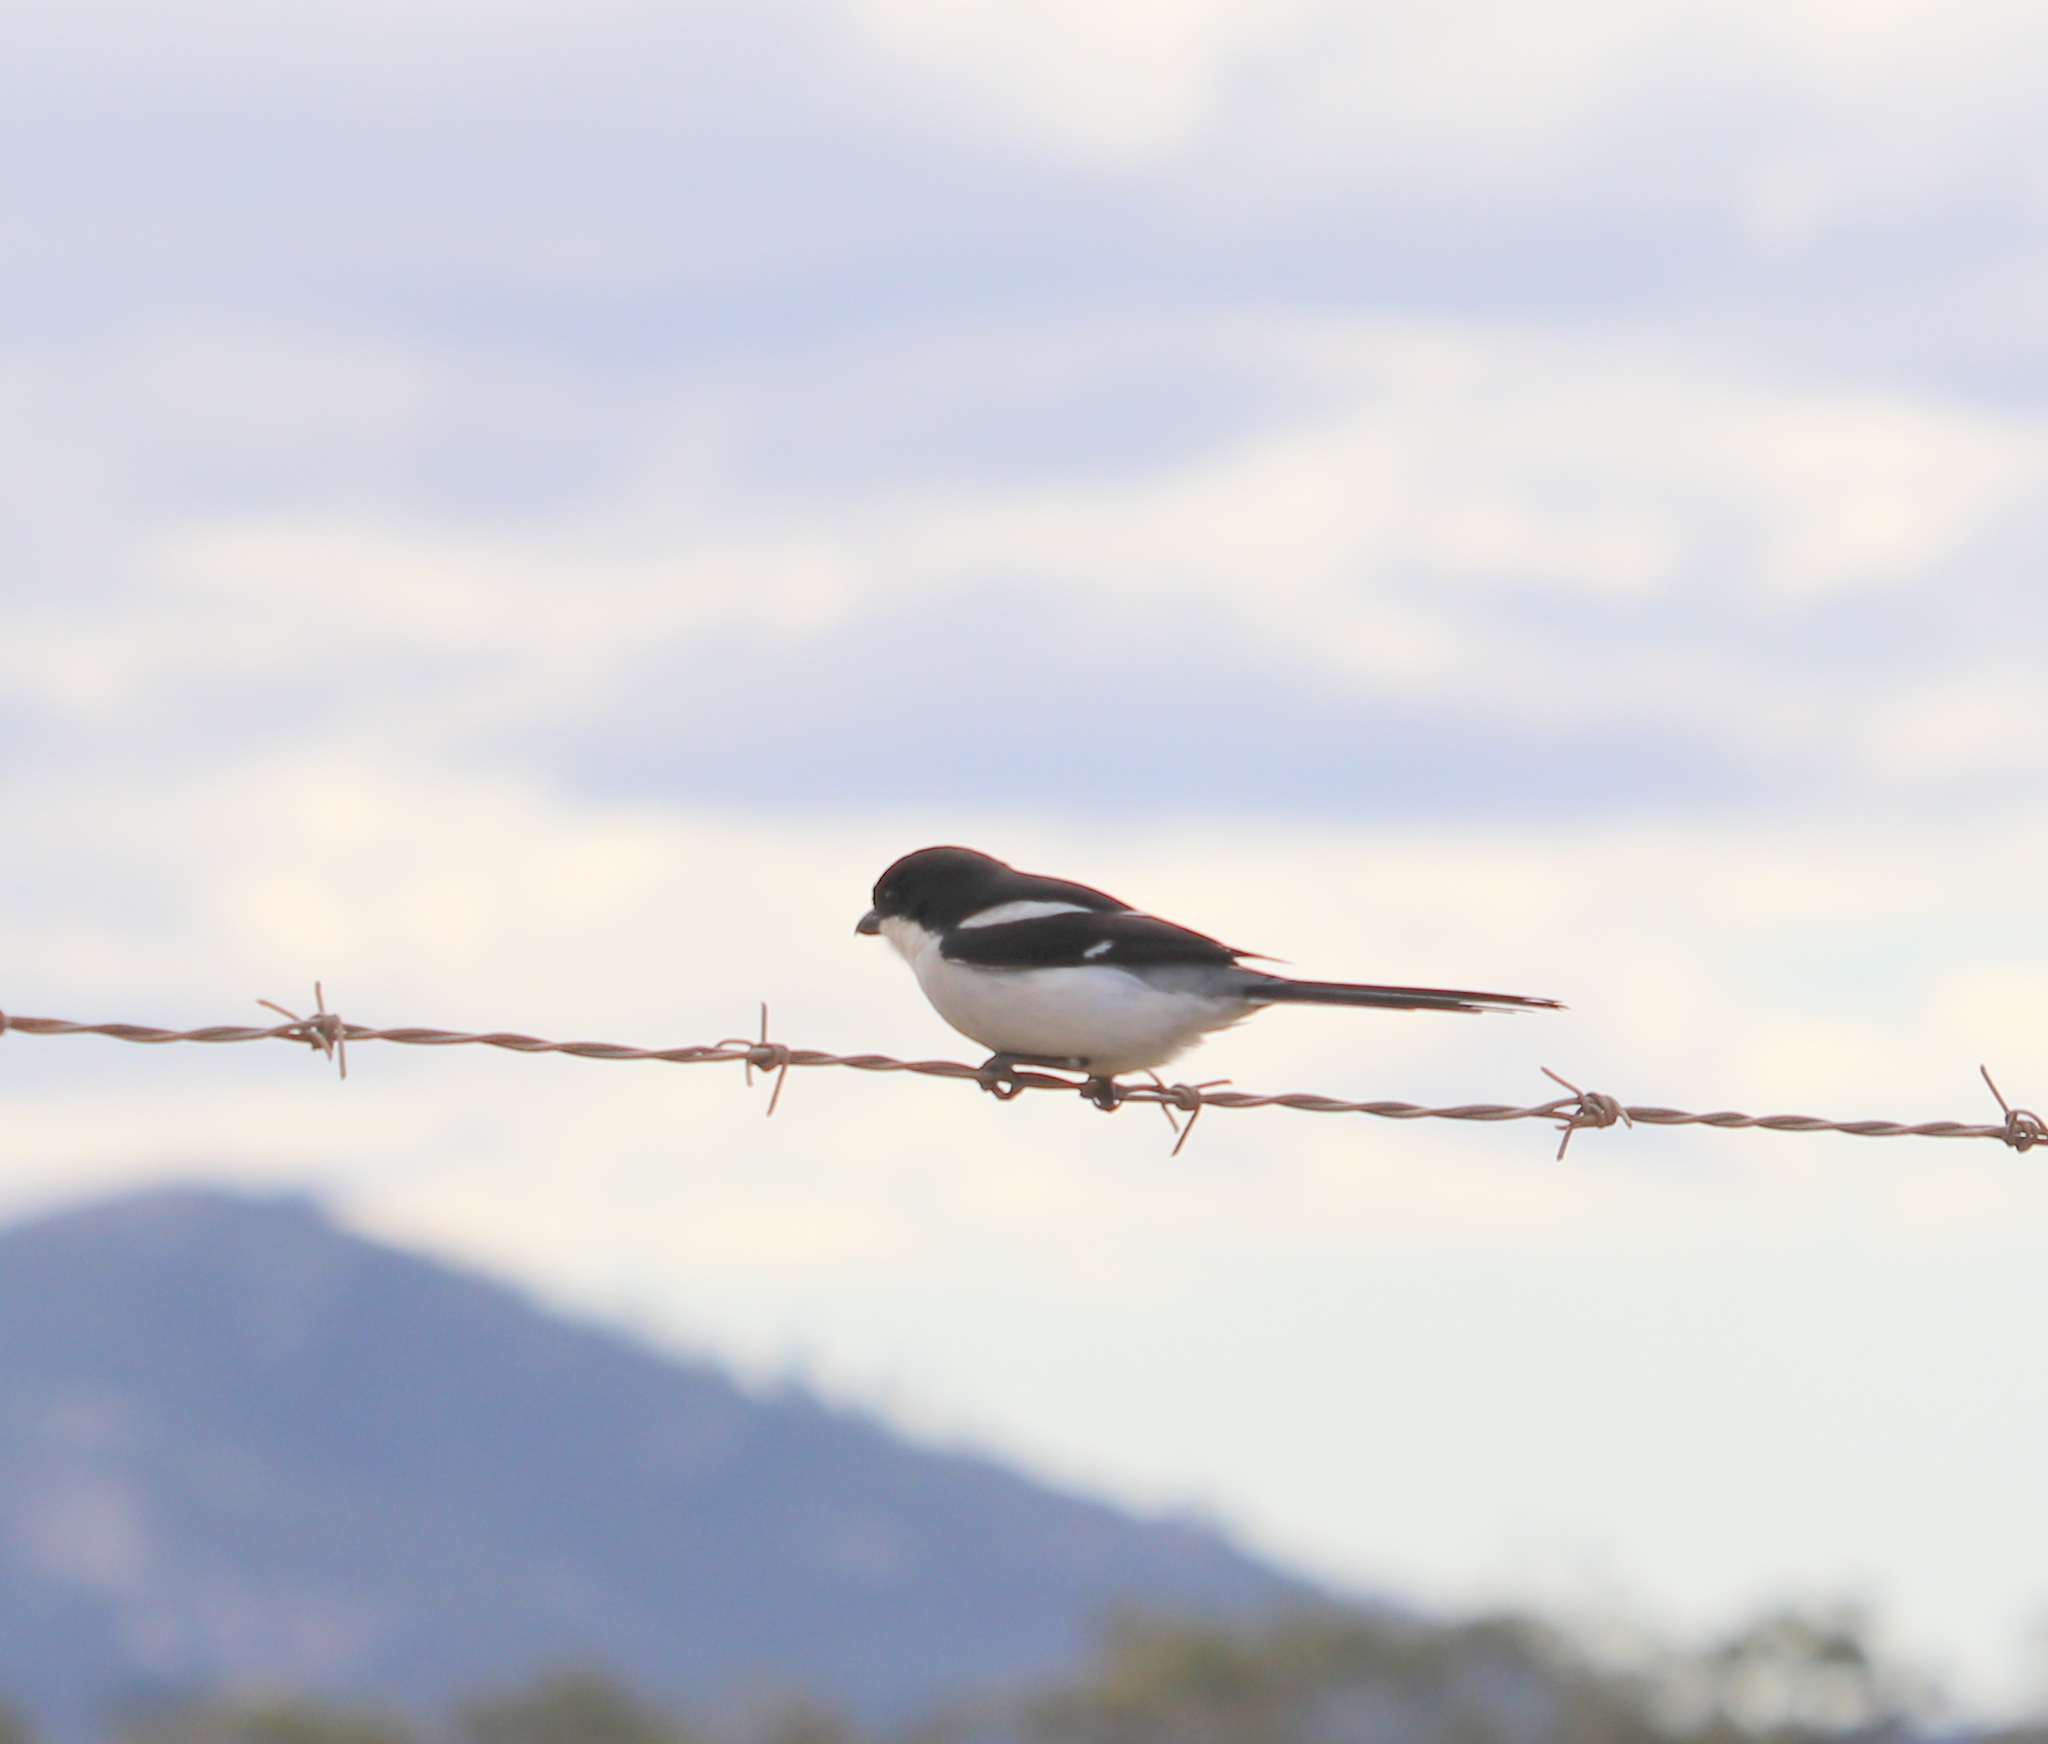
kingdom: Animalia
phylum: Chordata
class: Aves
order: Passeriformes
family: Laniidae
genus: Lanius
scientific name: Lanius collaris
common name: Southern fiscal
